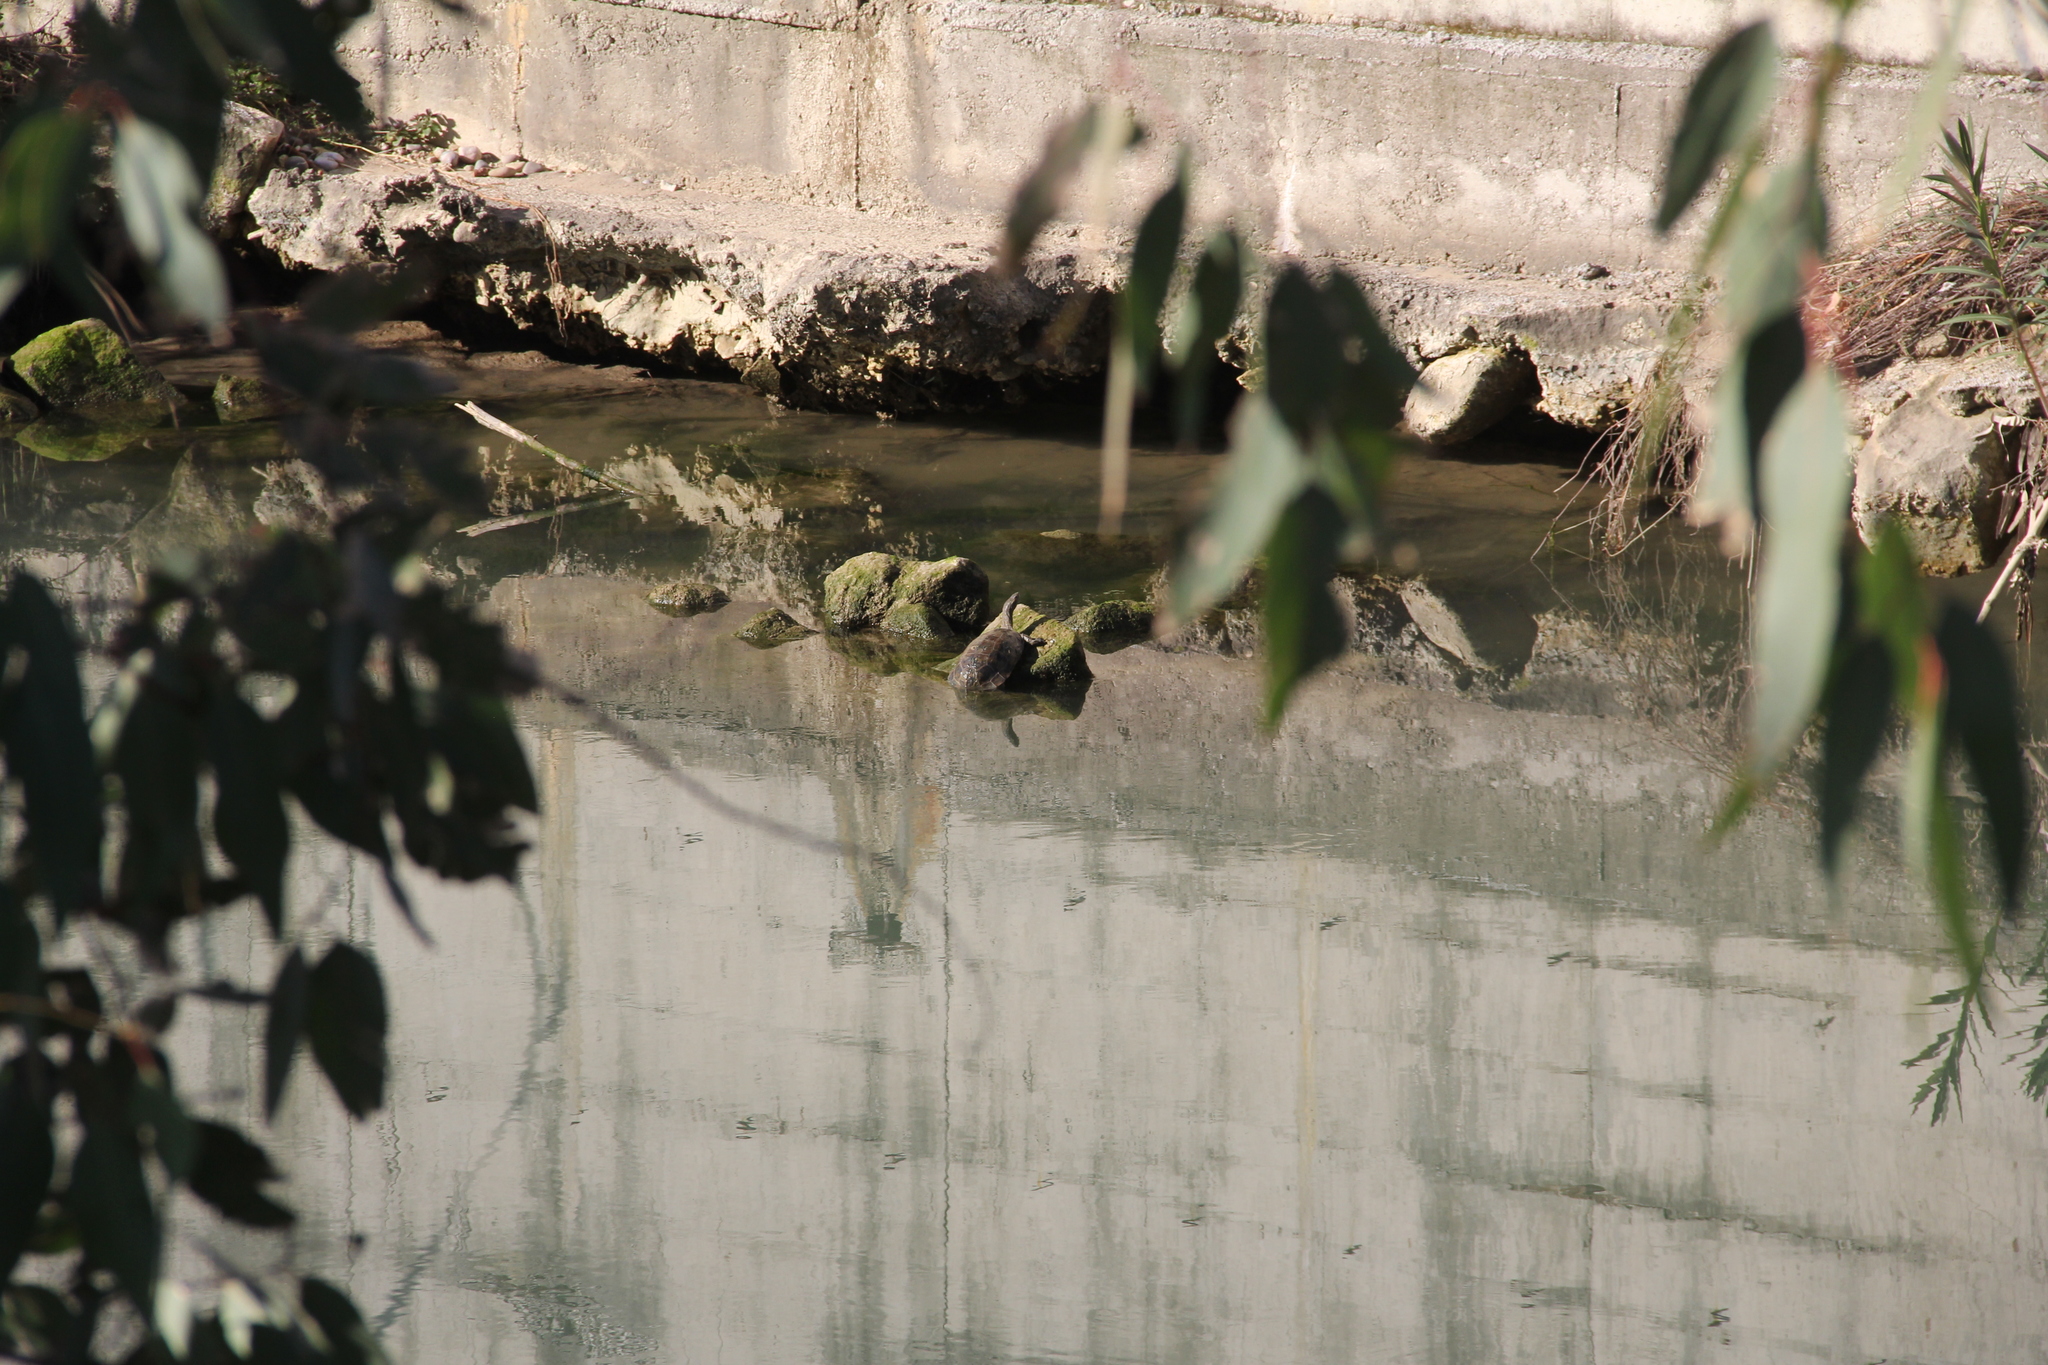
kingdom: Animalia
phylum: Chordata
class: Testudines
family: Geoemydidae
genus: Mauremys
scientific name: Mauremys rivulata
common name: Western caspian turtle
